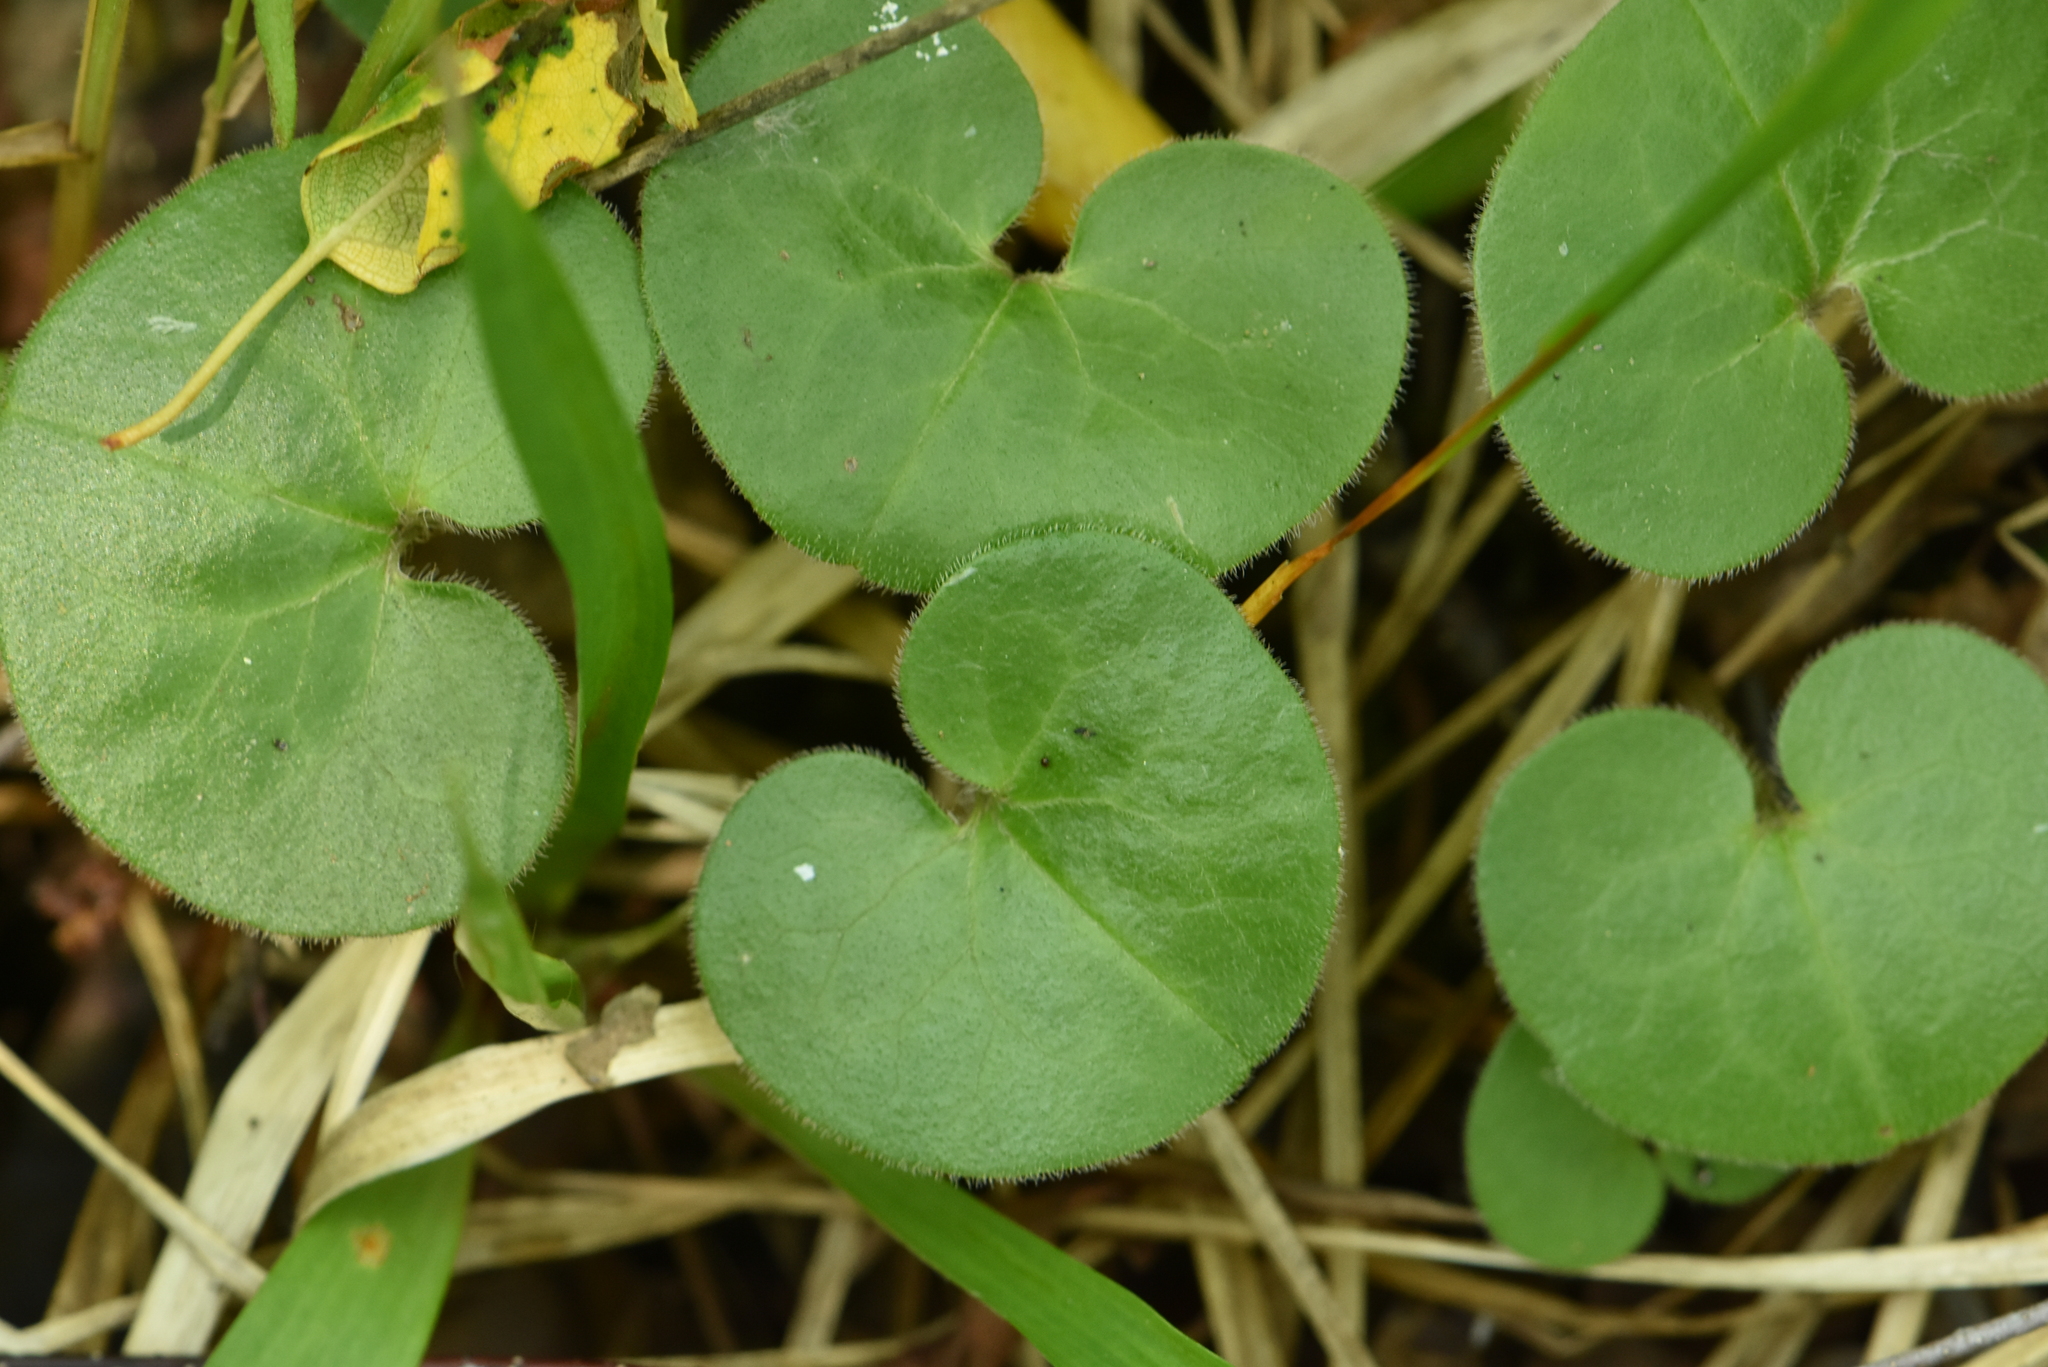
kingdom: Plantae
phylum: Tracheophyta
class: Magnoliopsida
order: Piperales
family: Aristolochiaceae
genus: Asarum
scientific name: Asarum europaeum
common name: Asarabacca
